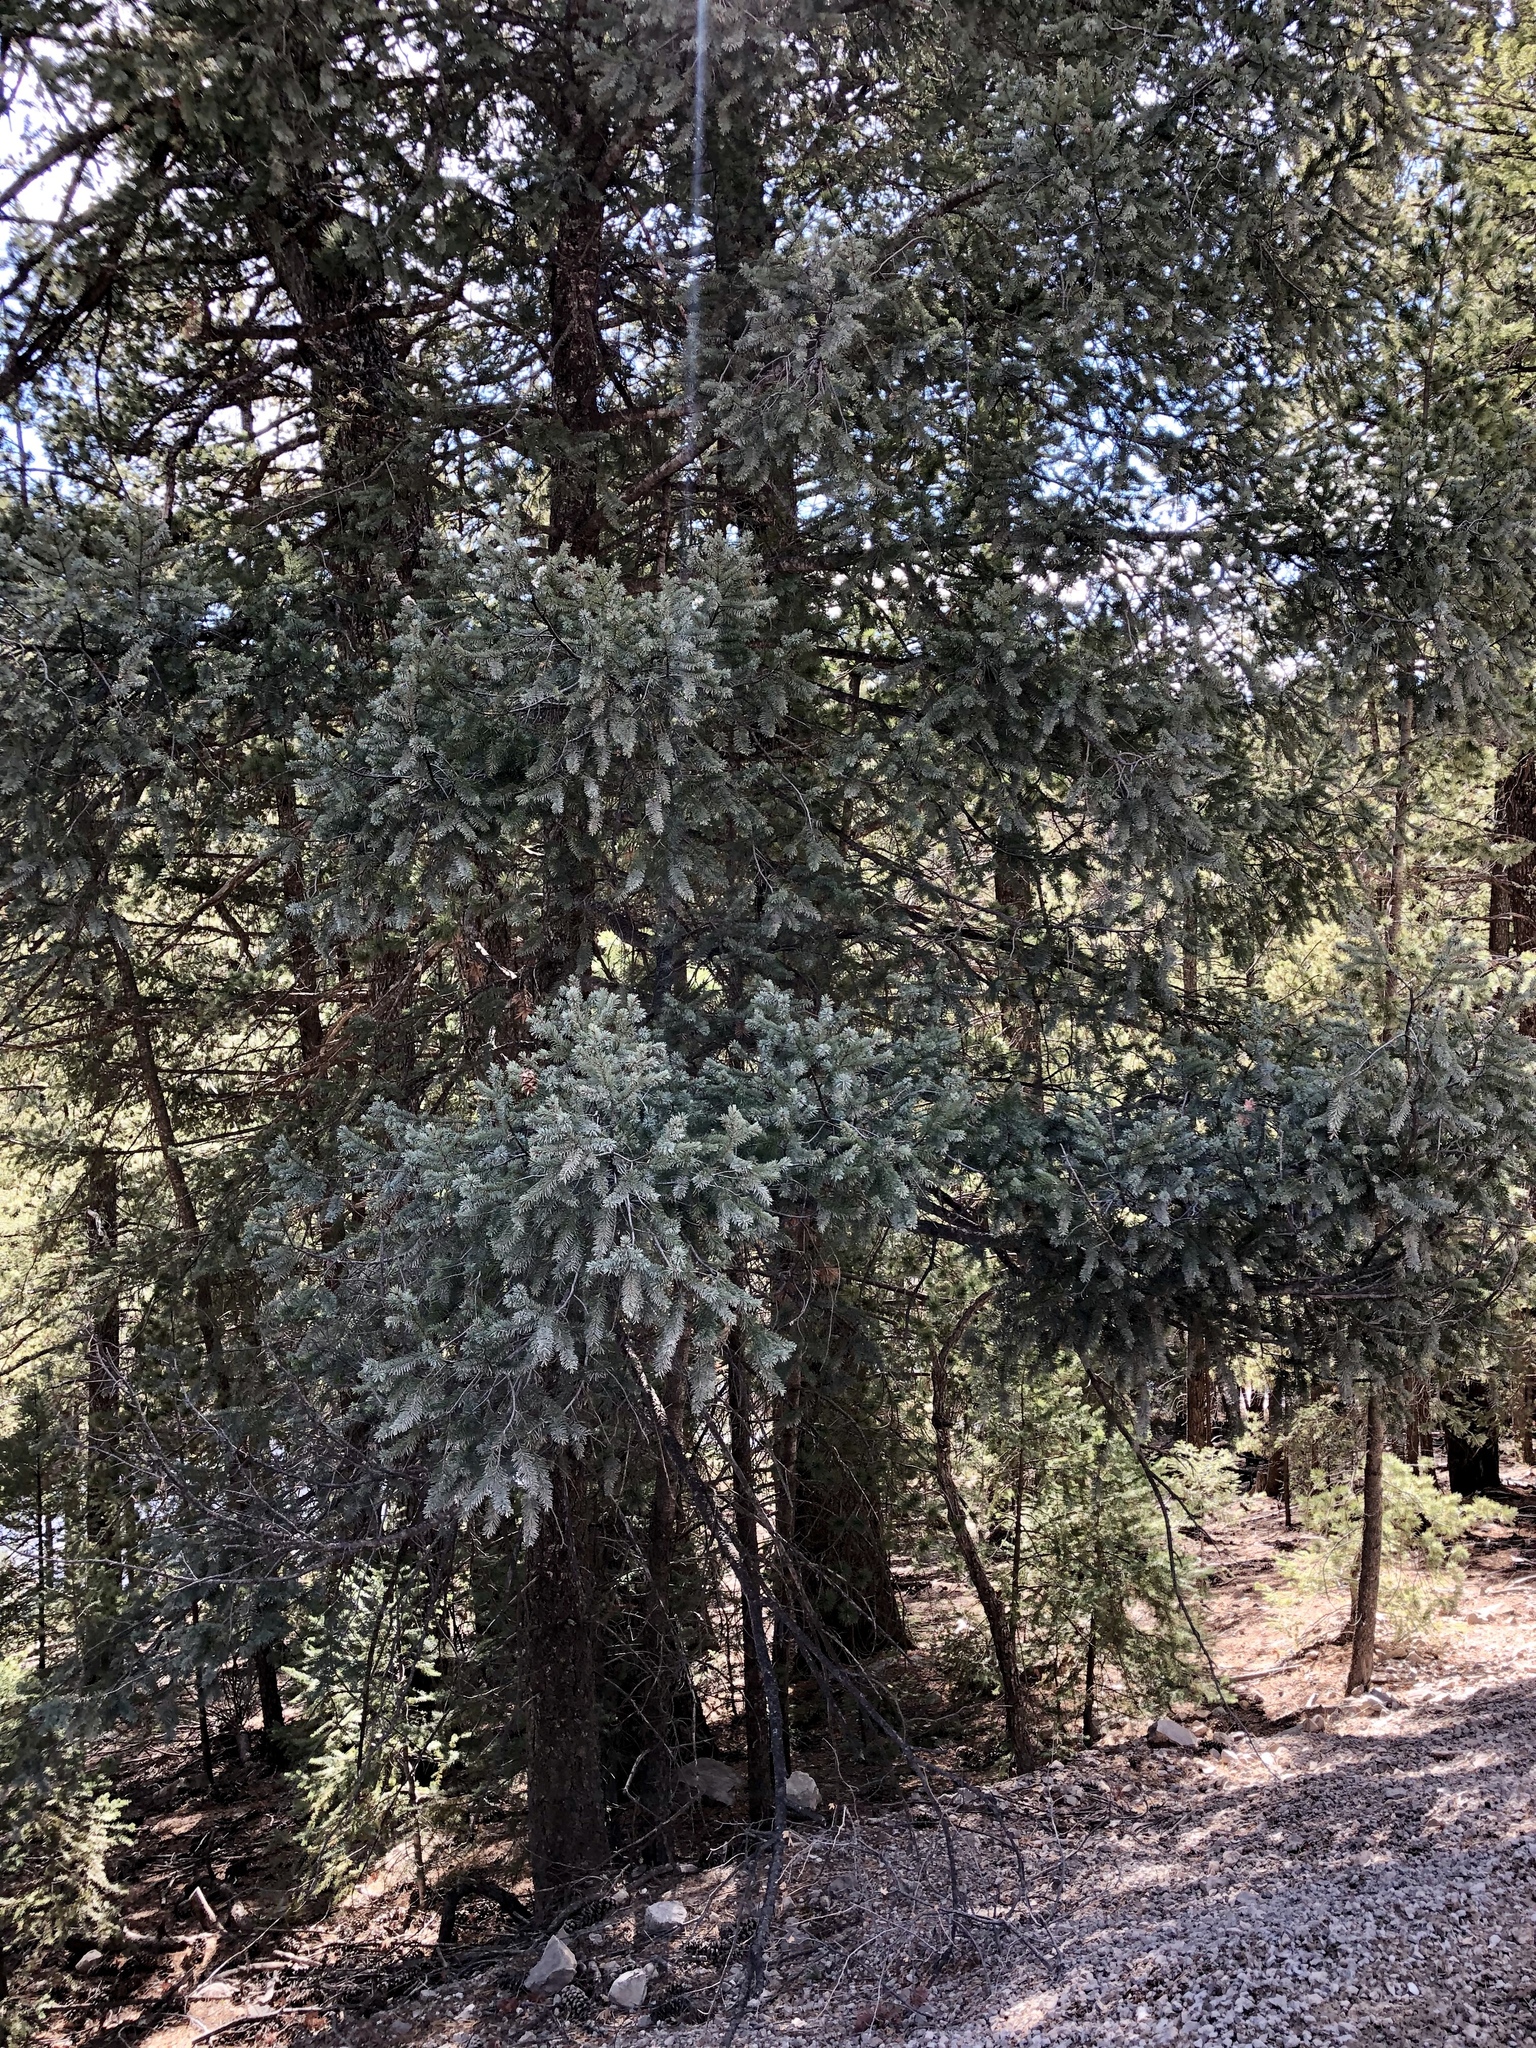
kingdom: Plantae
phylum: Tracheophyta
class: Pinopsida
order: Pinales
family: Pinaceae
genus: Pseudotsuga
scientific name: Pseudotsuga menziesii
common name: Douglas fir
